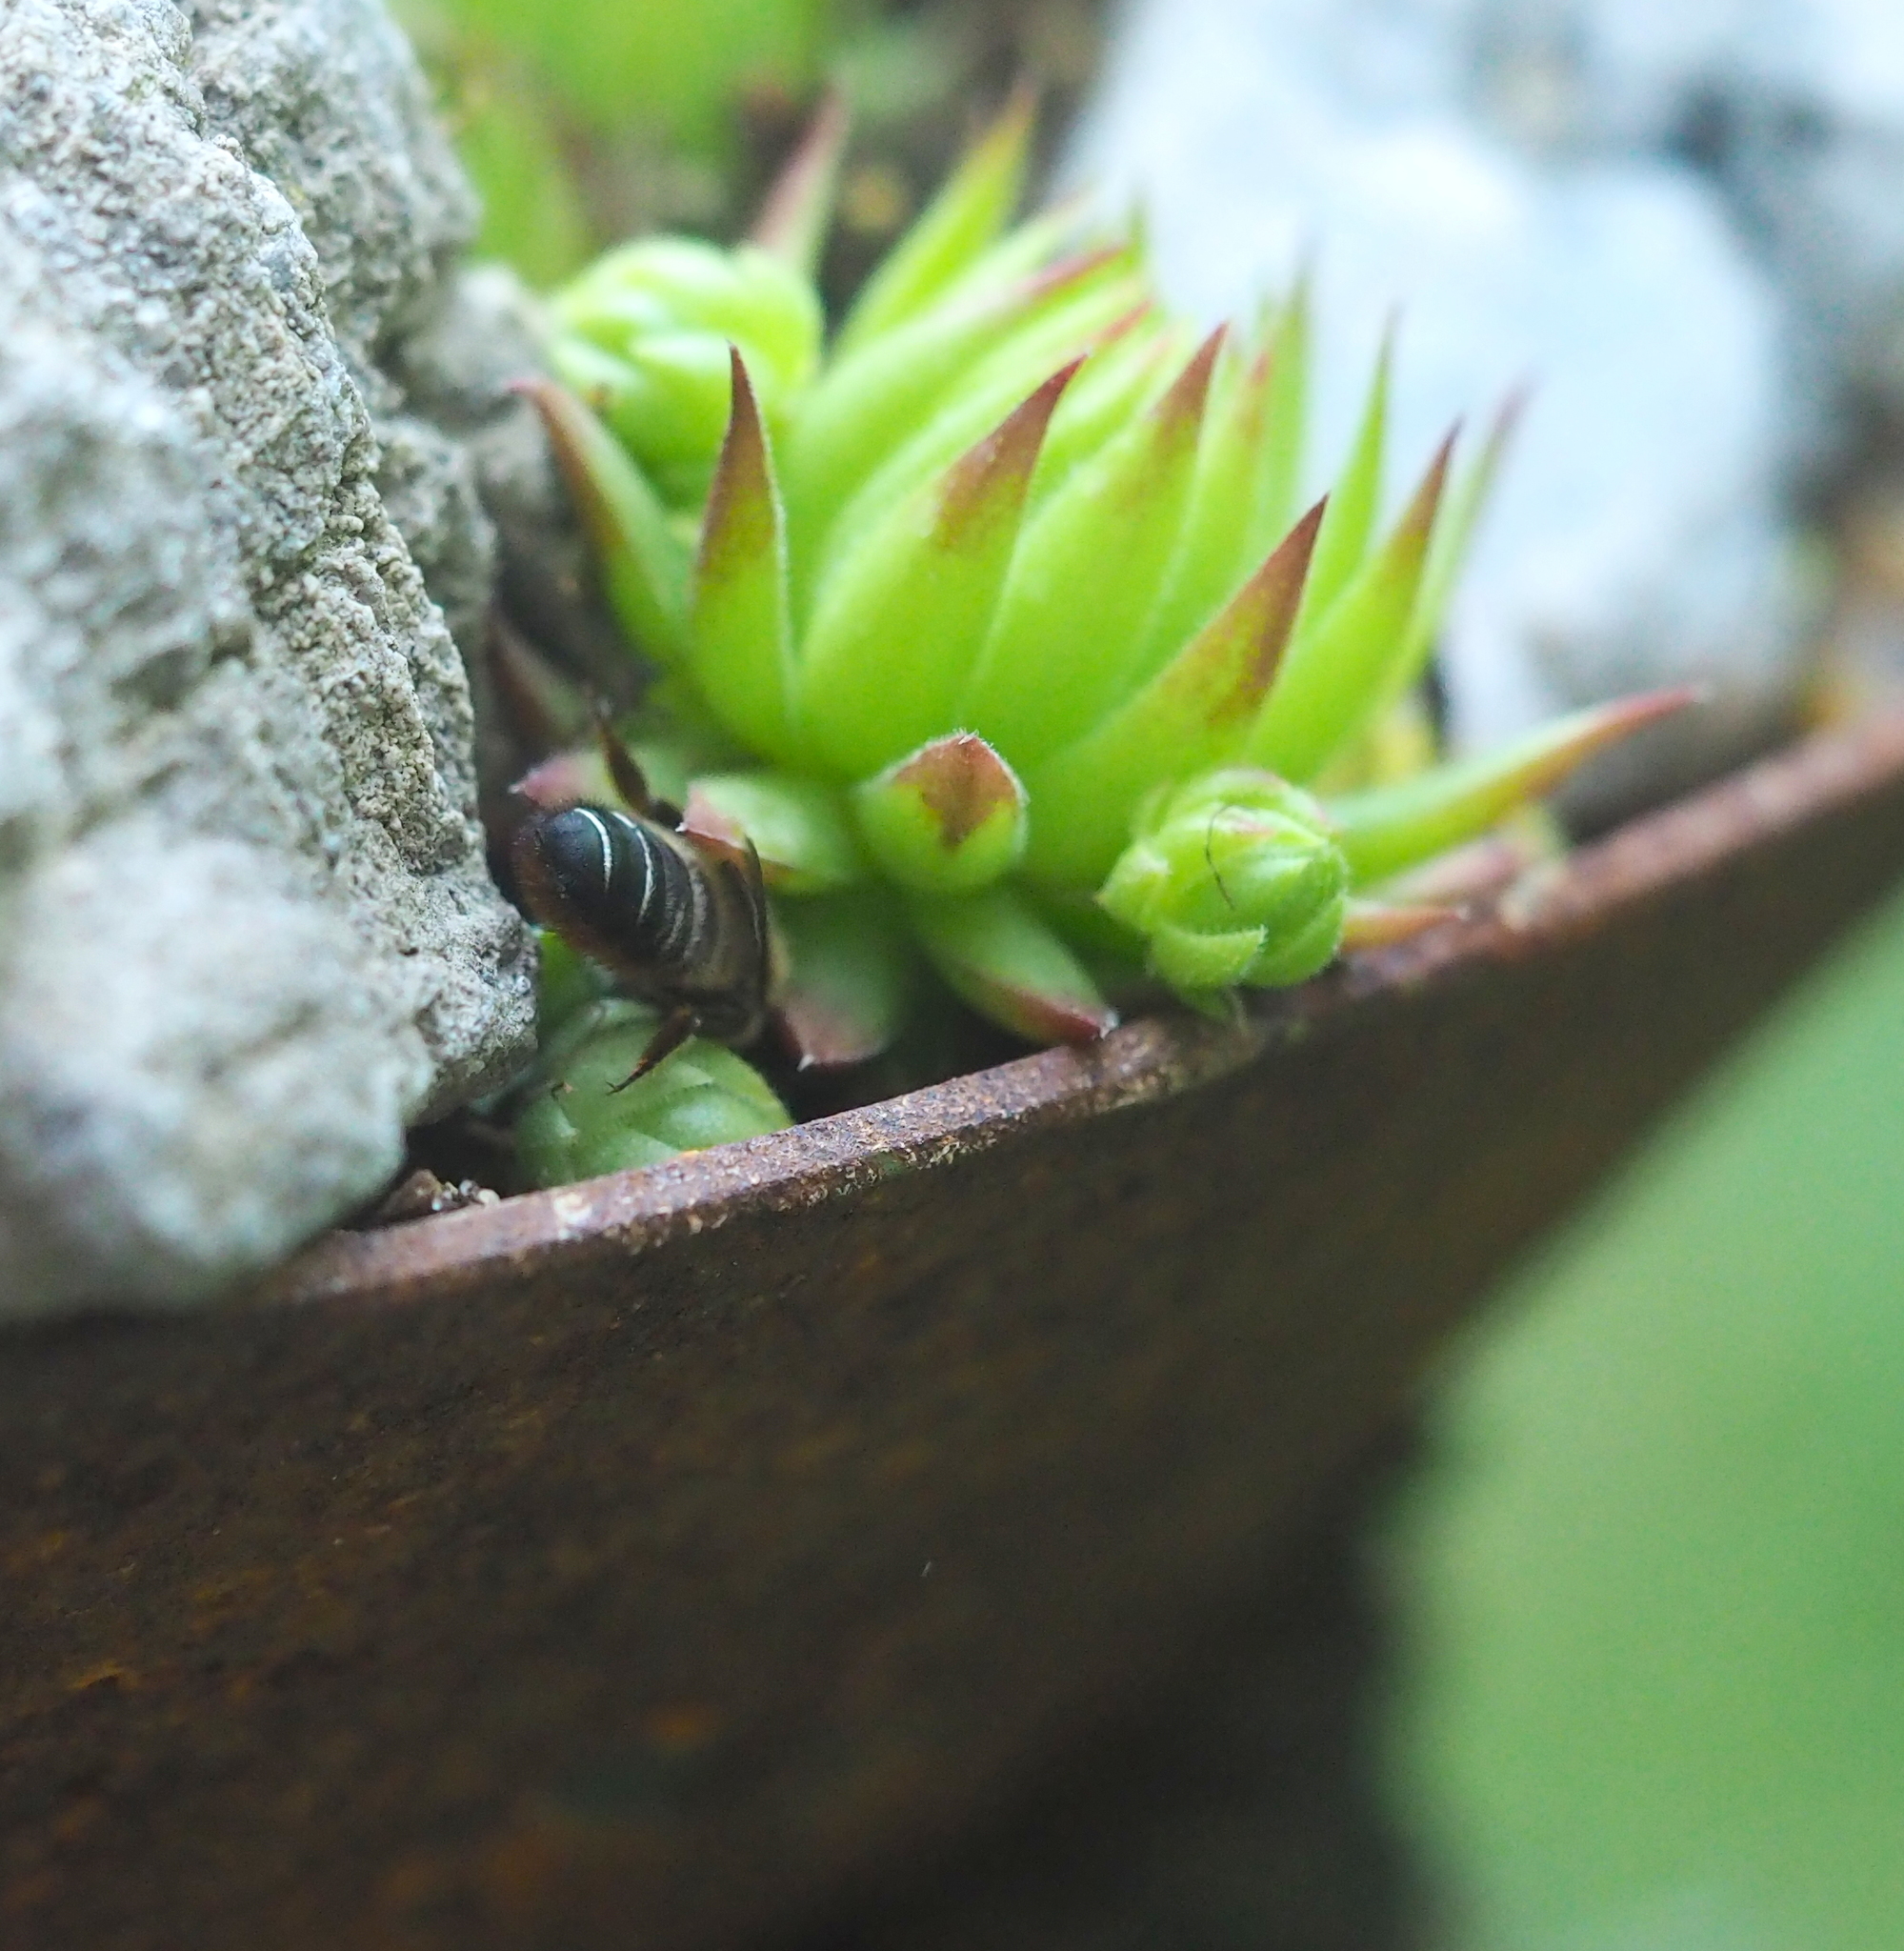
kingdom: Animalia
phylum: Arthropoda
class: Insecta
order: Hymenoptera
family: Megachilidae
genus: Megachile
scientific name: Megachile willughbiella
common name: Willughby's leafcutter bee
